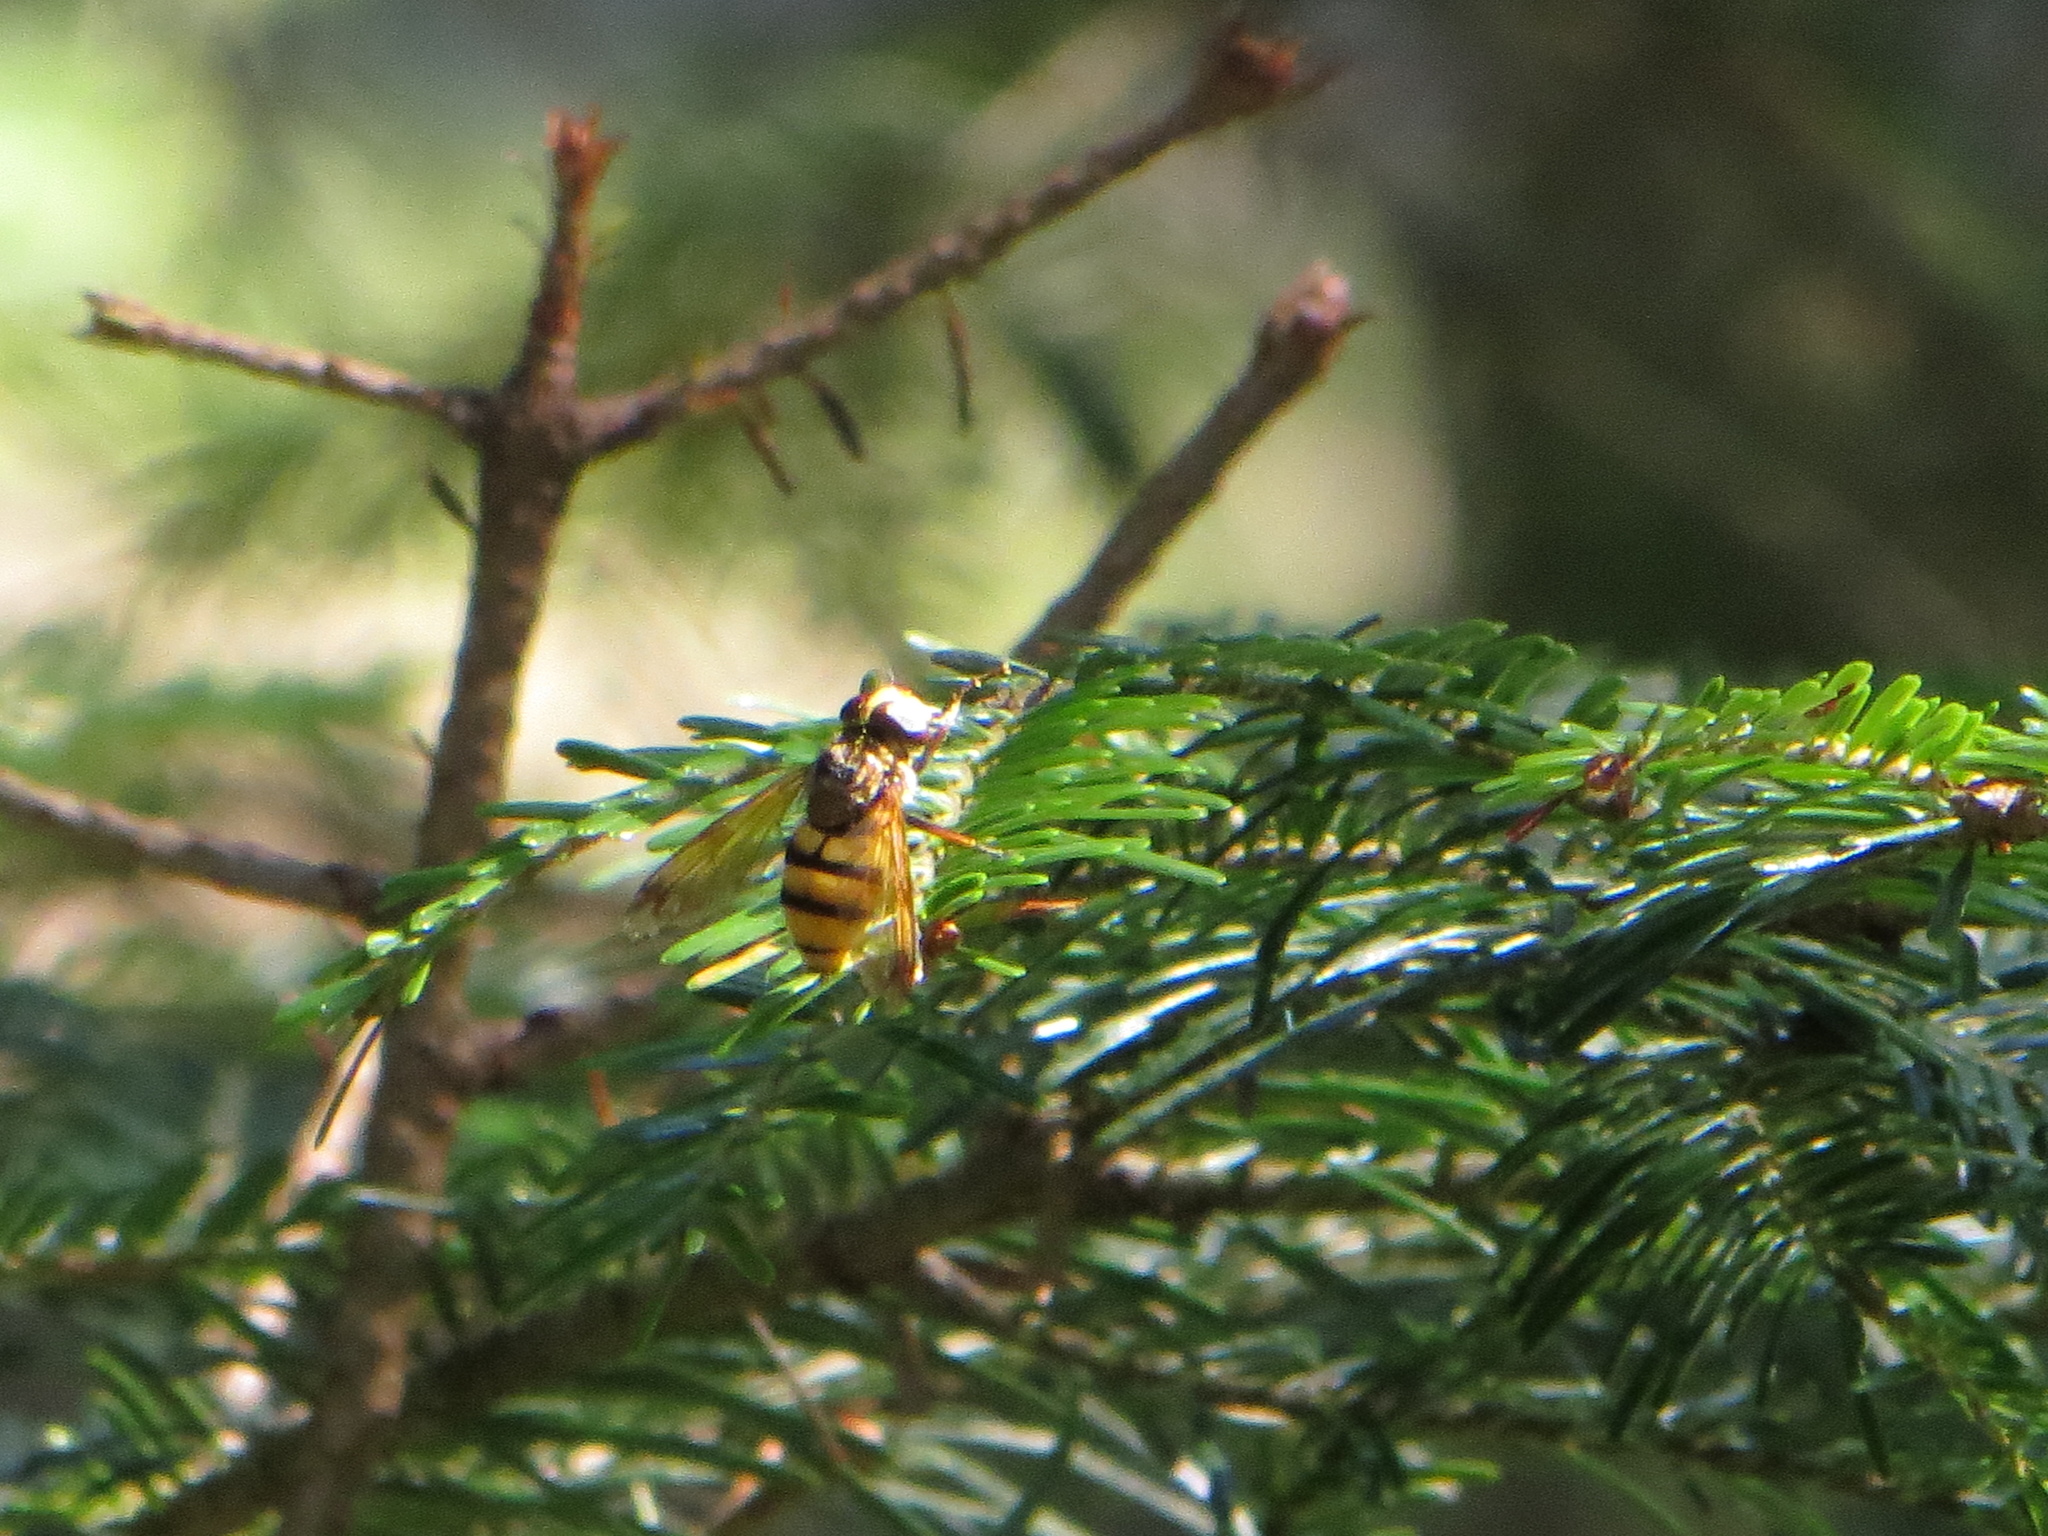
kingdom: Animalia
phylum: Arthropoda
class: Insecta
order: Diptera
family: Syrphidae
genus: Volucella
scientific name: Volucella inanis
